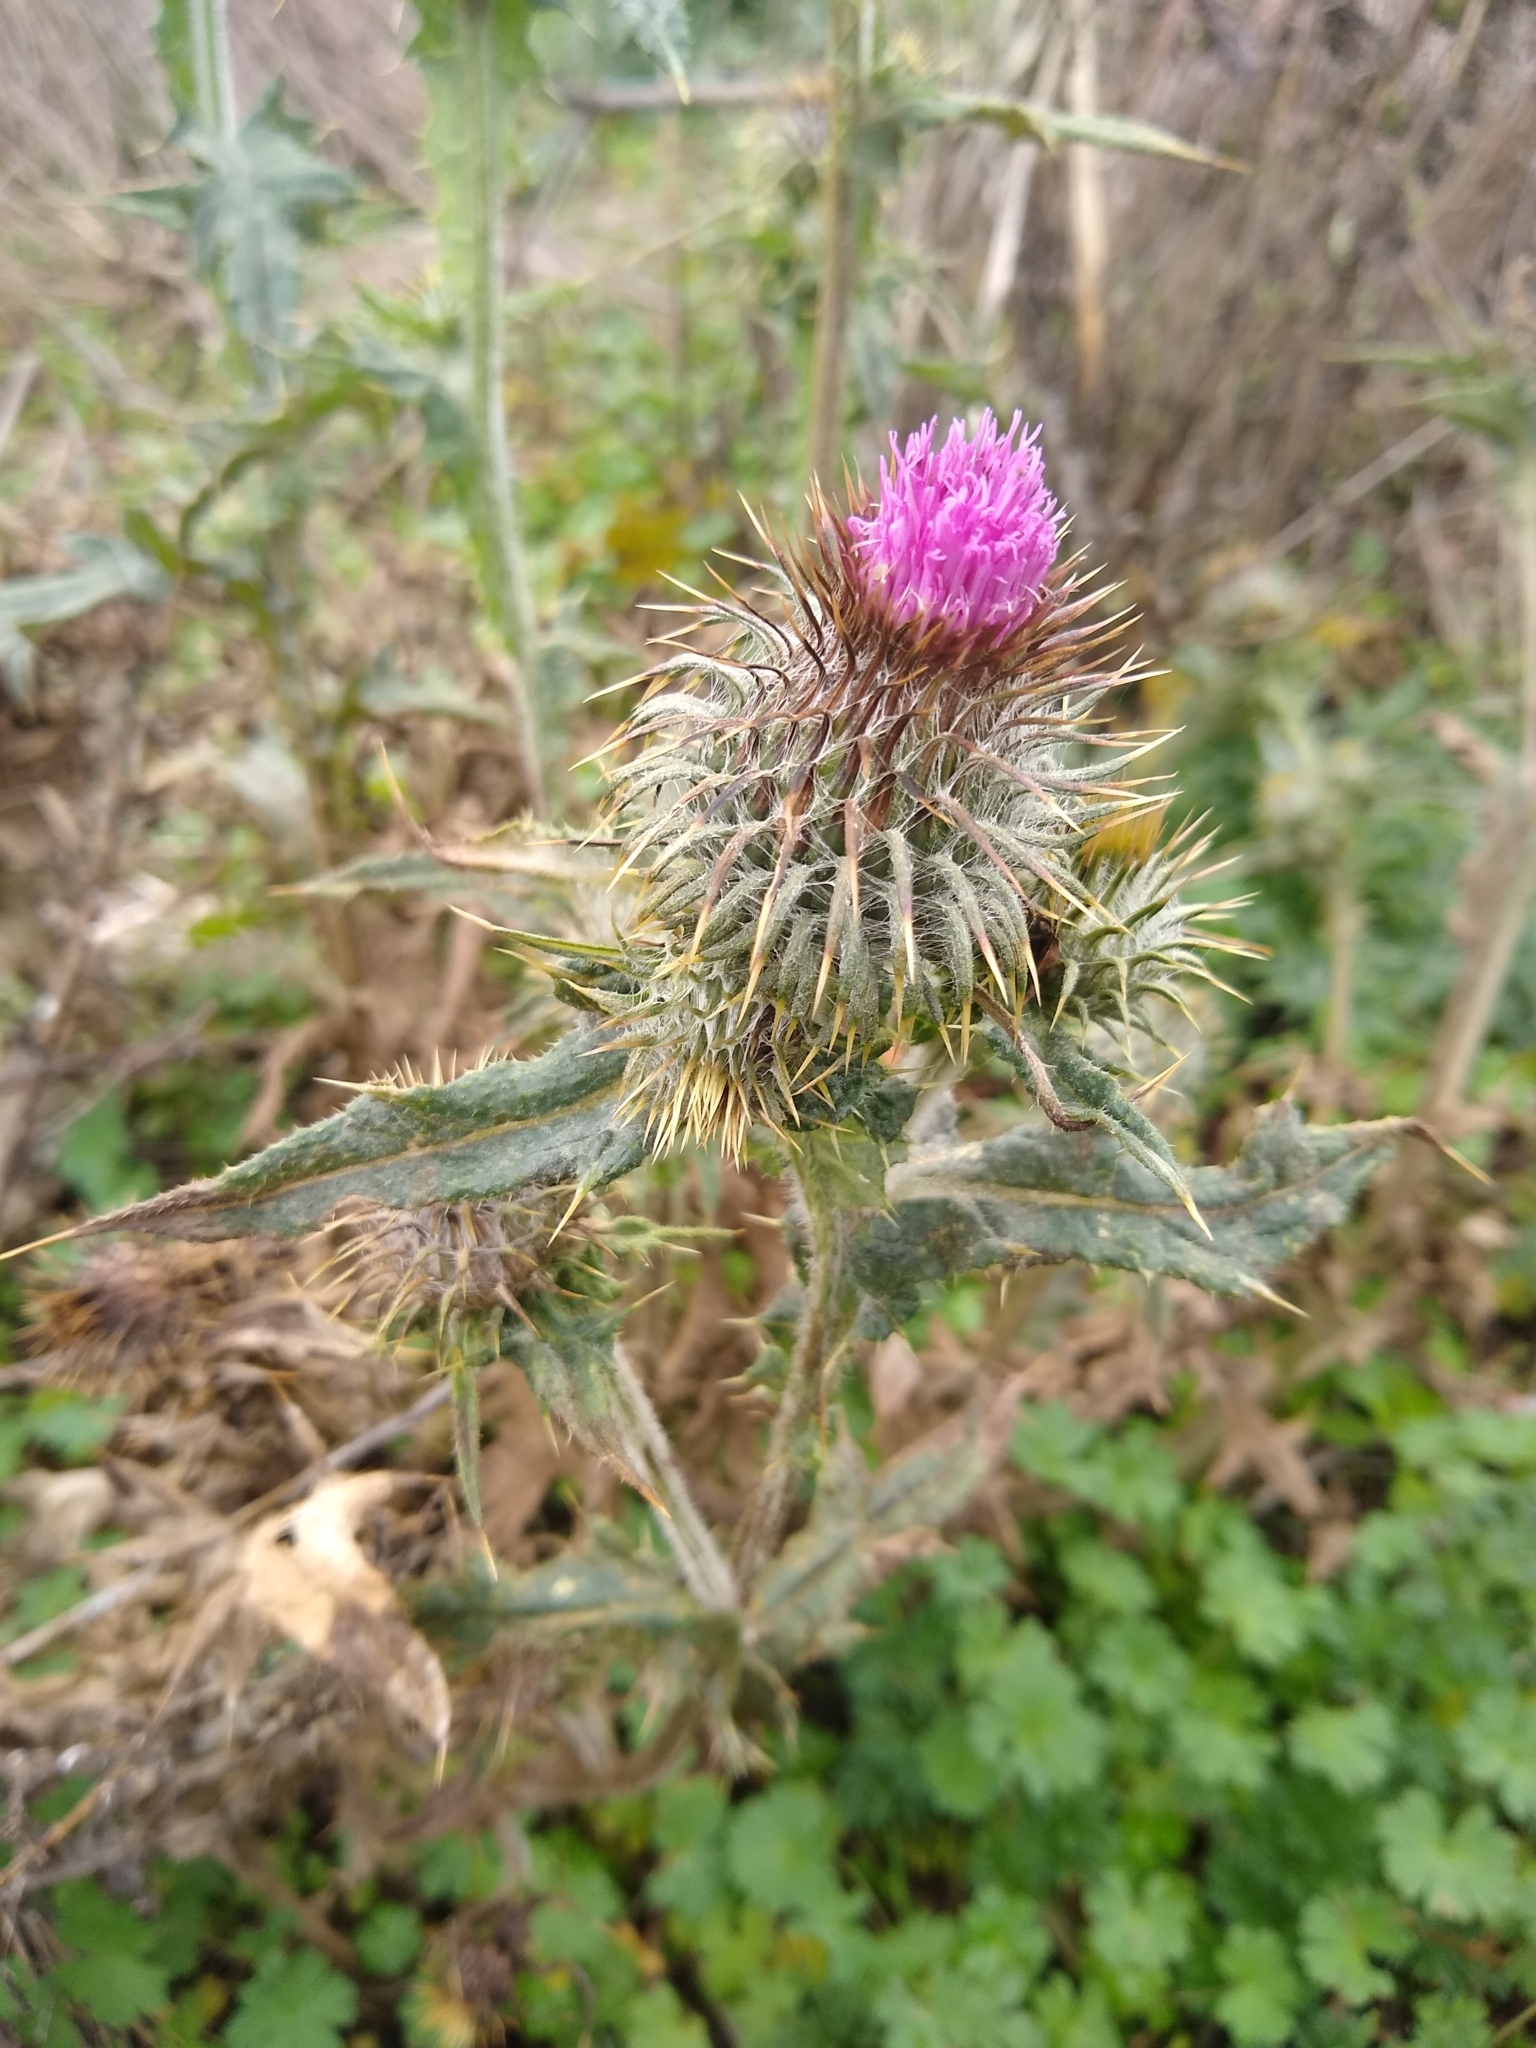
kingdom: Plantae
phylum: Tracheophyta
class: Magnoliopsida
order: Asterales
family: Asteraceae
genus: Cirsium
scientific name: Cirsium vulgare
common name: Bull thistle
